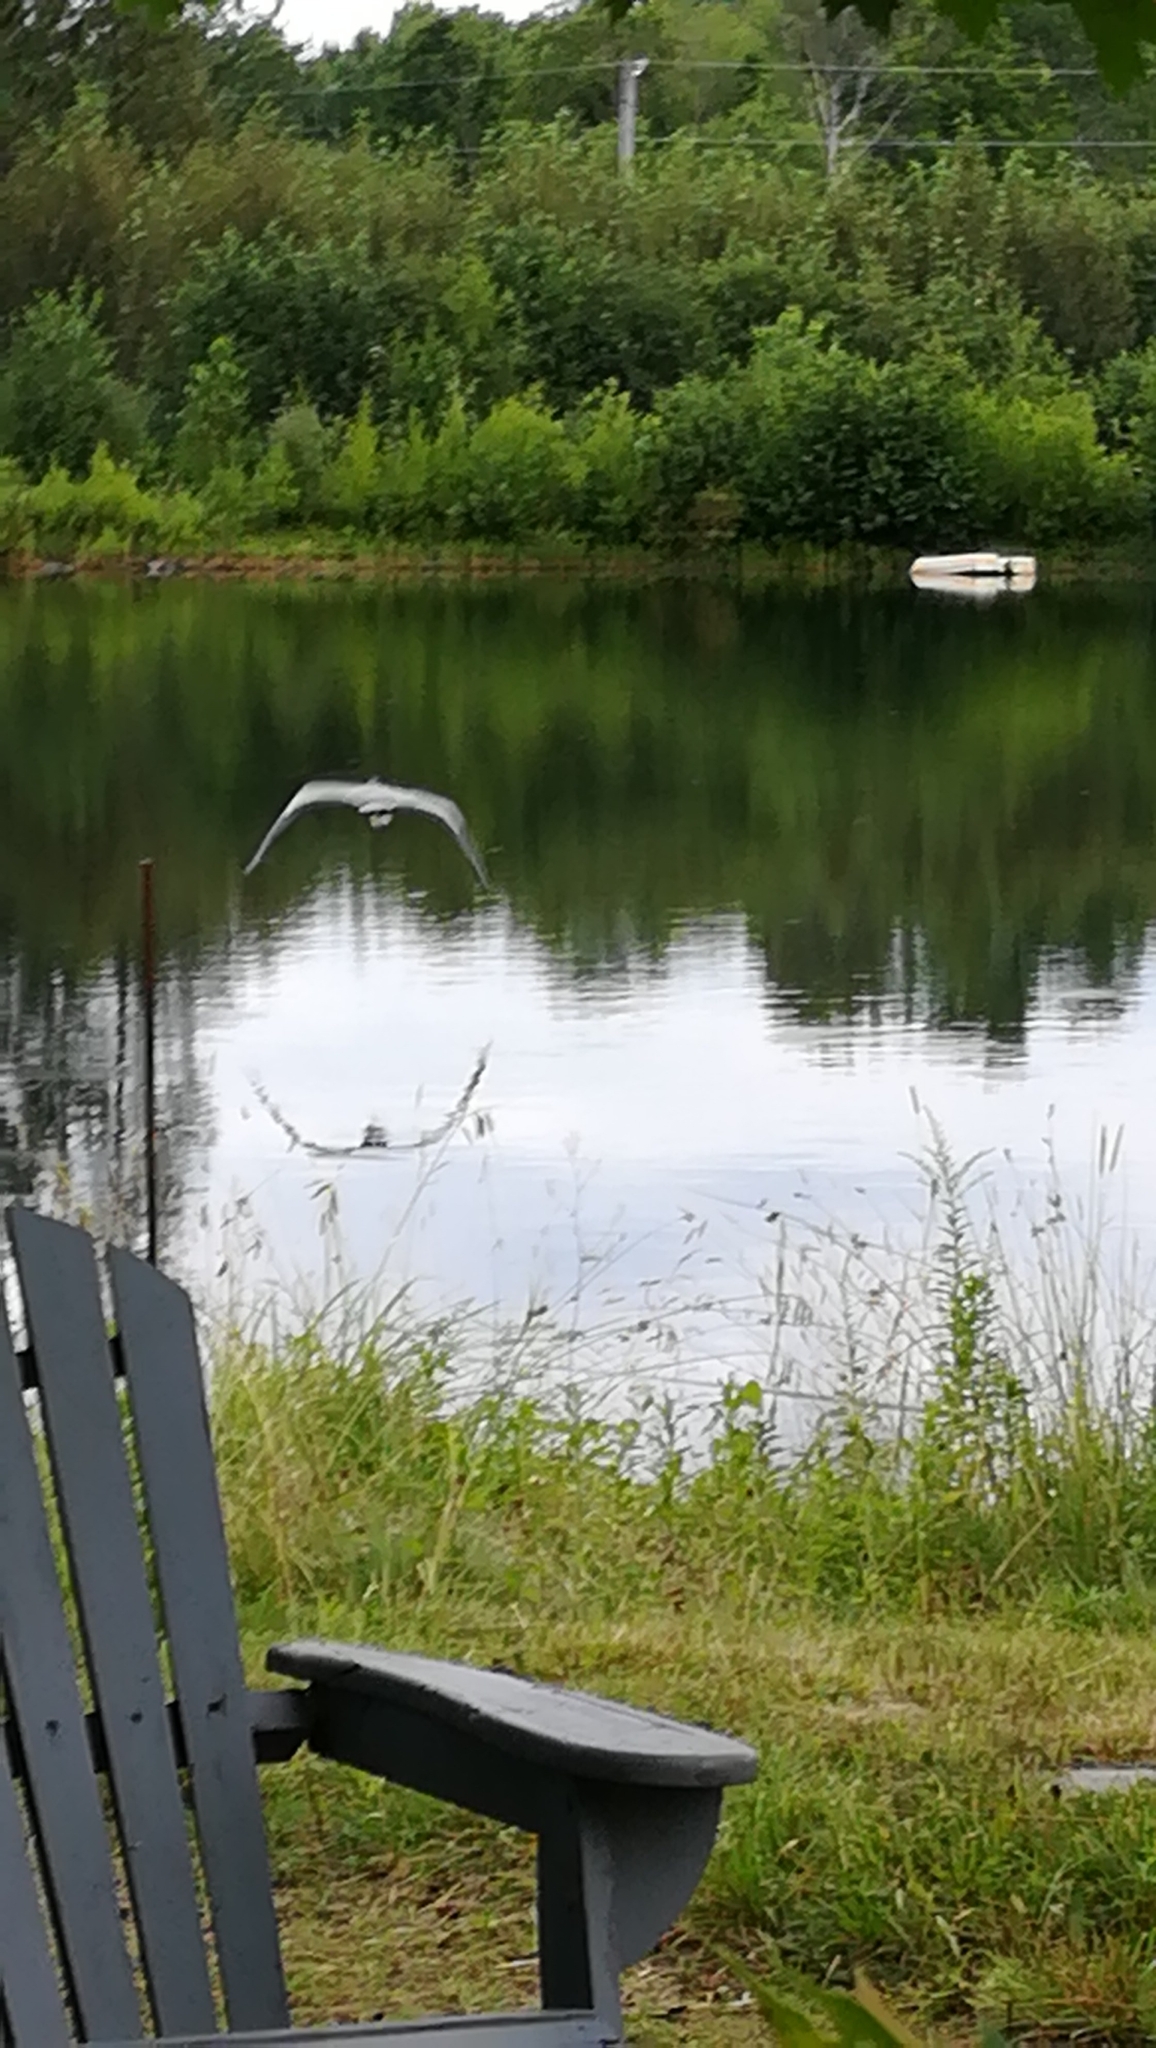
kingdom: Animalia
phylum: Chordata
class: Aves
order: Pelecaniformes
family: Ardeidae
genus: Ardea
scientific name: Ardea herodias
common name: Great blue heron
